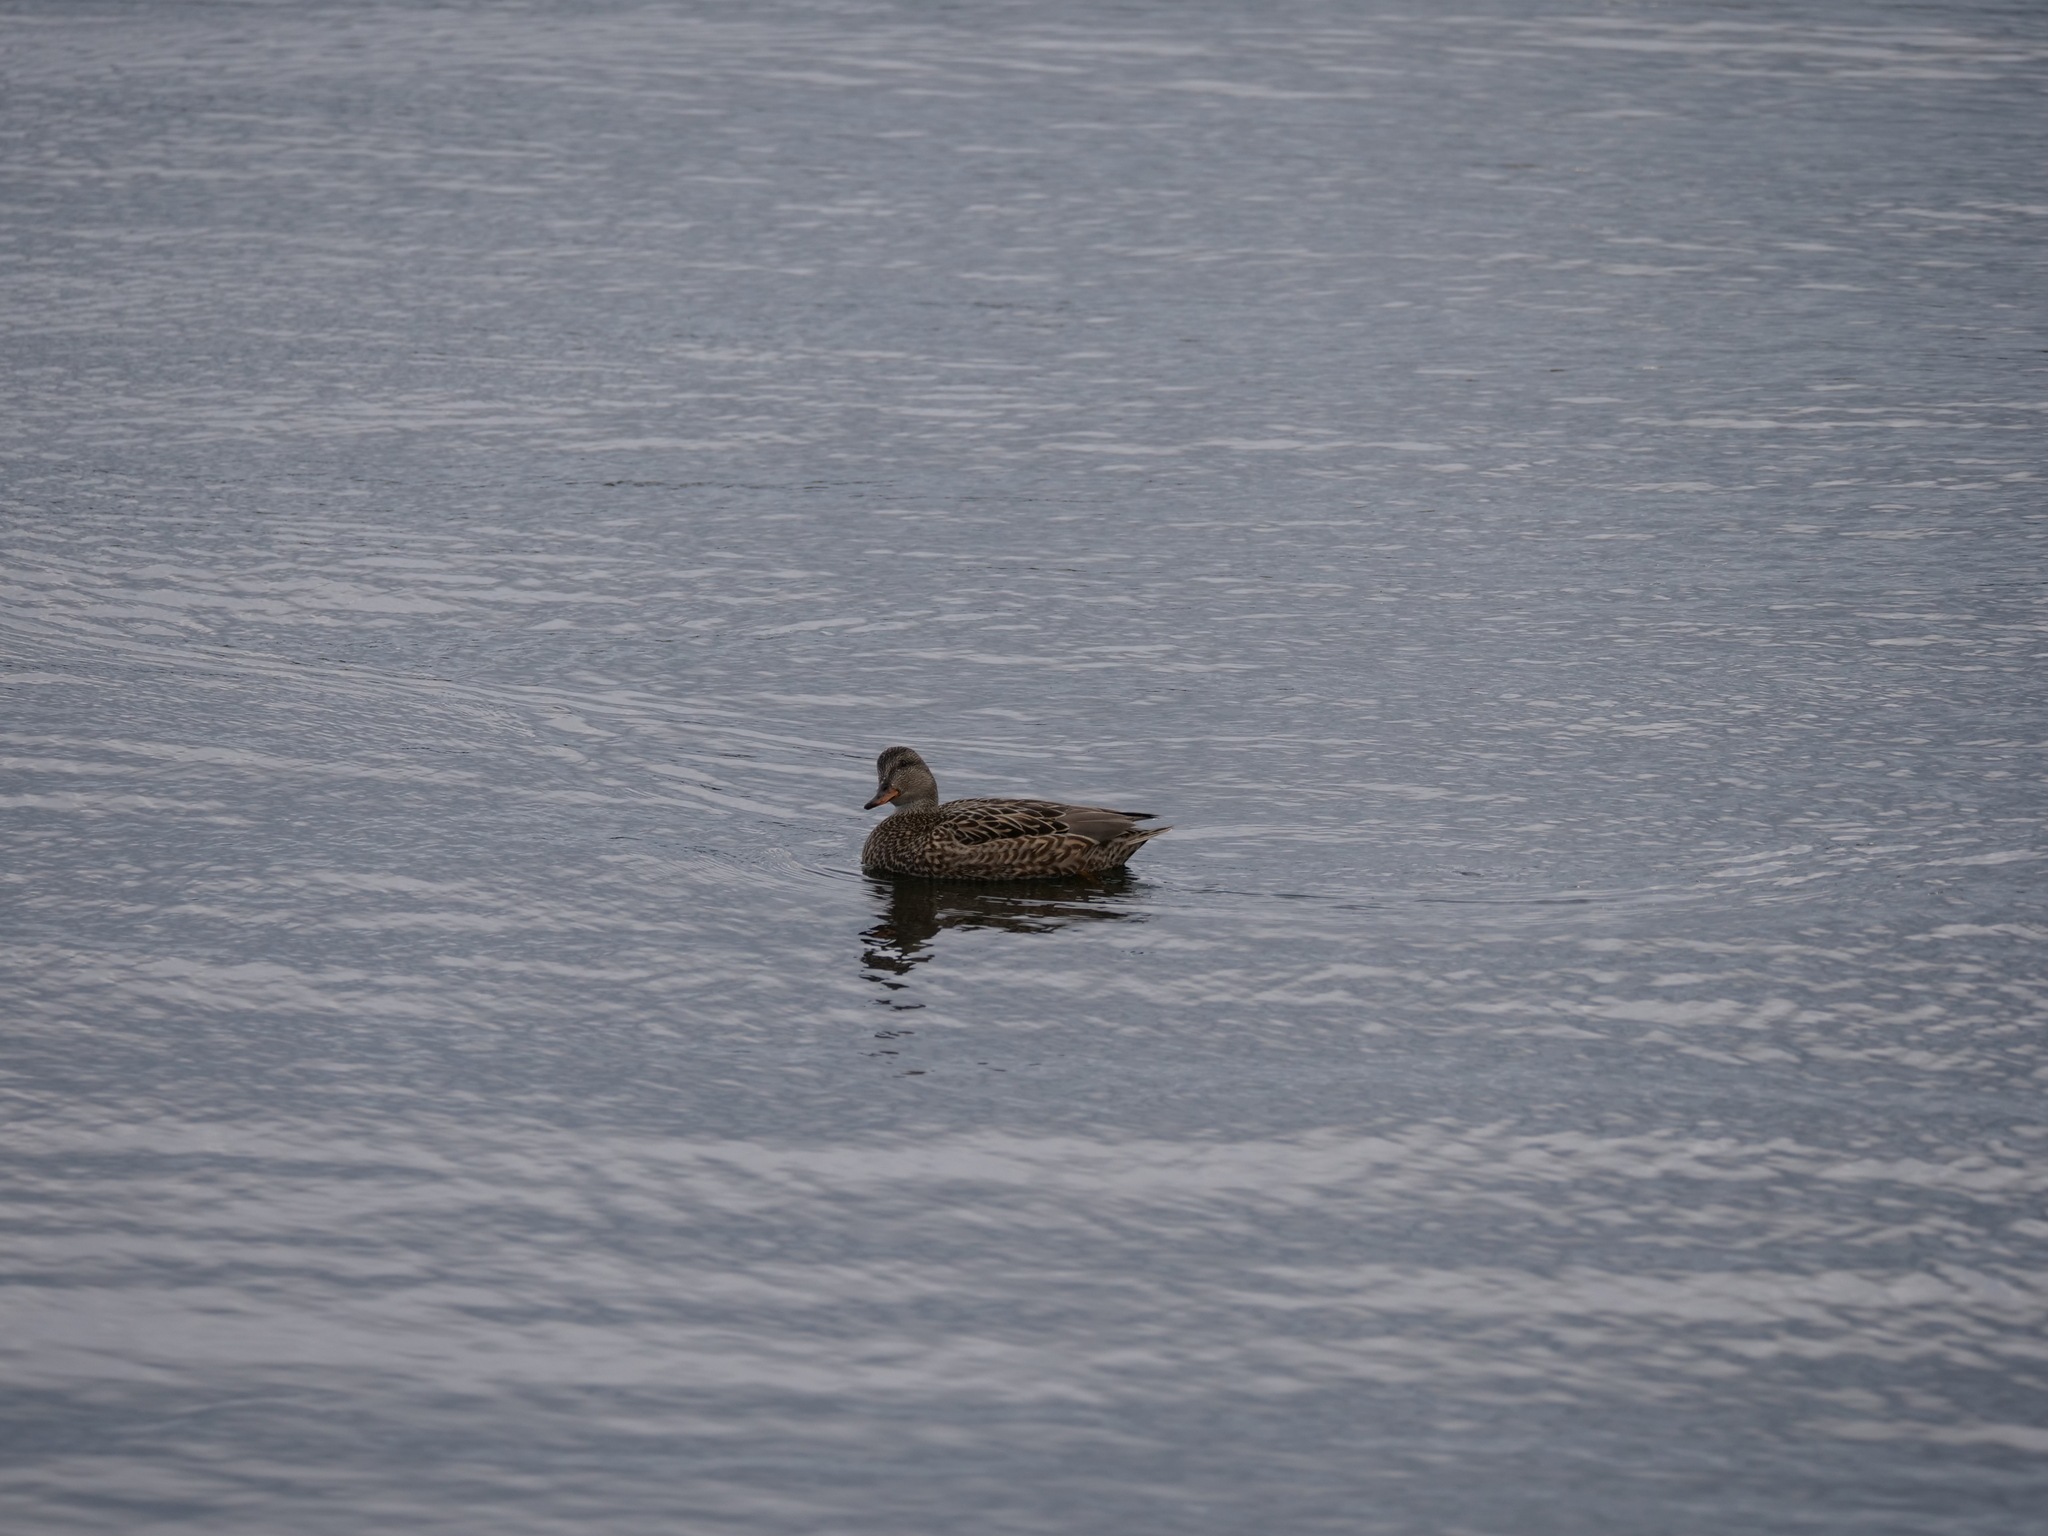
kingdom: Animalia
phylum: Chordata
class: Aves
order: Anseriformes
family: Anatidae
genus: Anas
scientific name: Anas platyrhynchos
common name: Mallard
